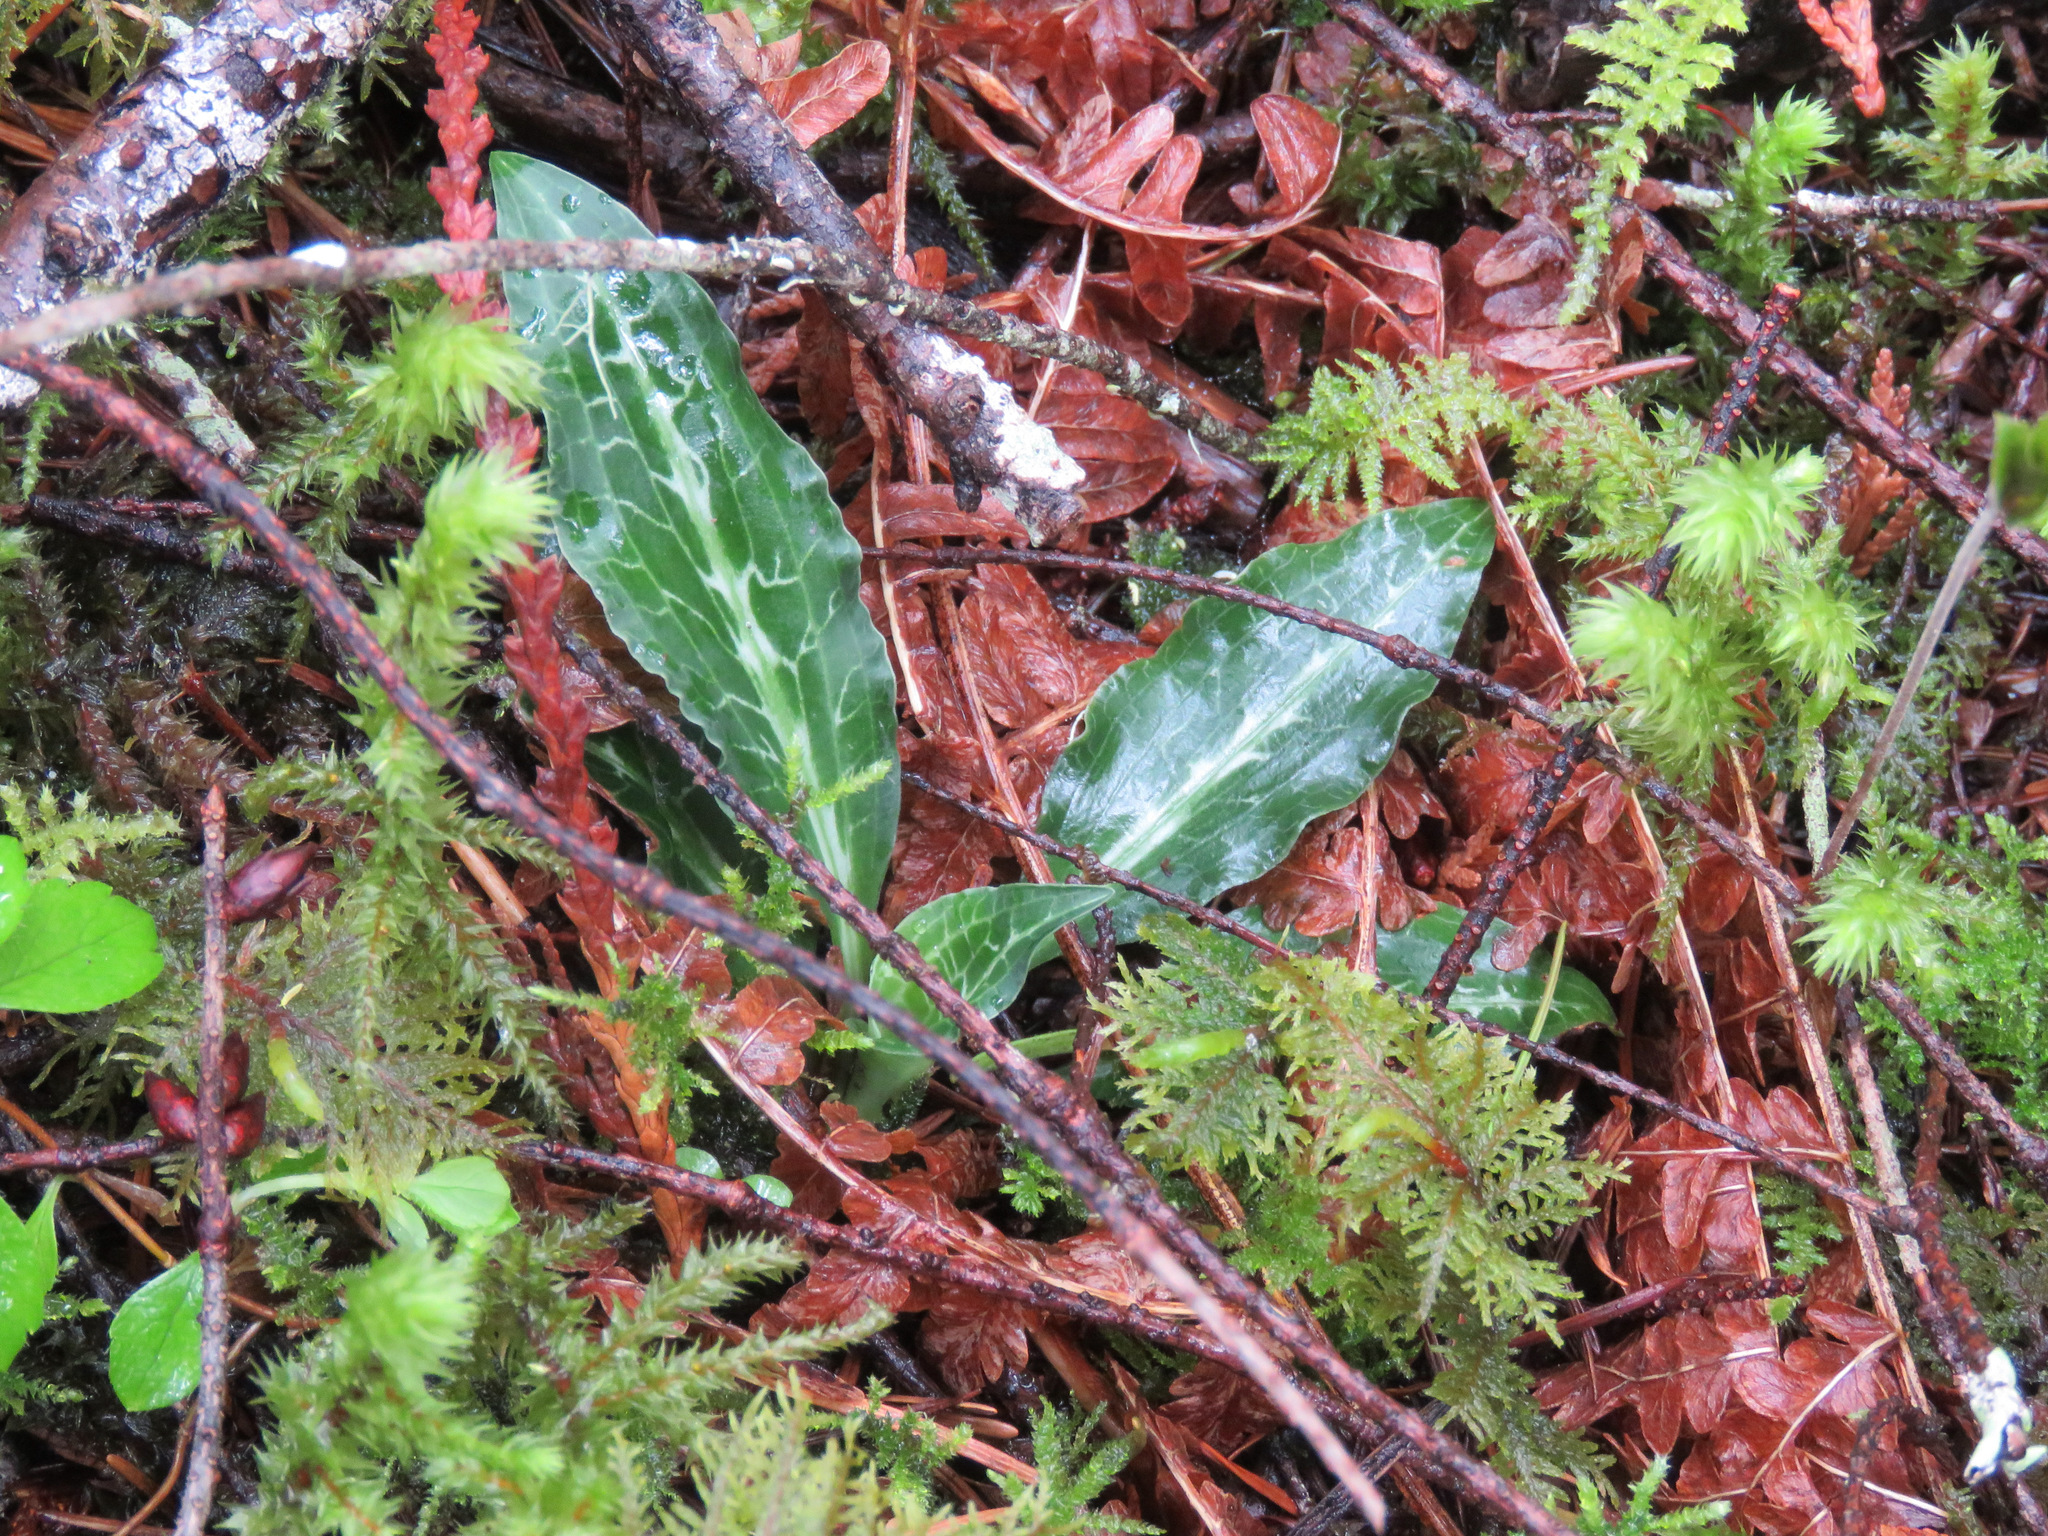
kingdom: Plantae
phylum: Tracheophyta
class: Liliopsida
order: Asparagales
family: Orchidaceae
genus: Goodyera
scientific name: Goodyera oblongifolia
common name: Giant rattlesnake-plantain
